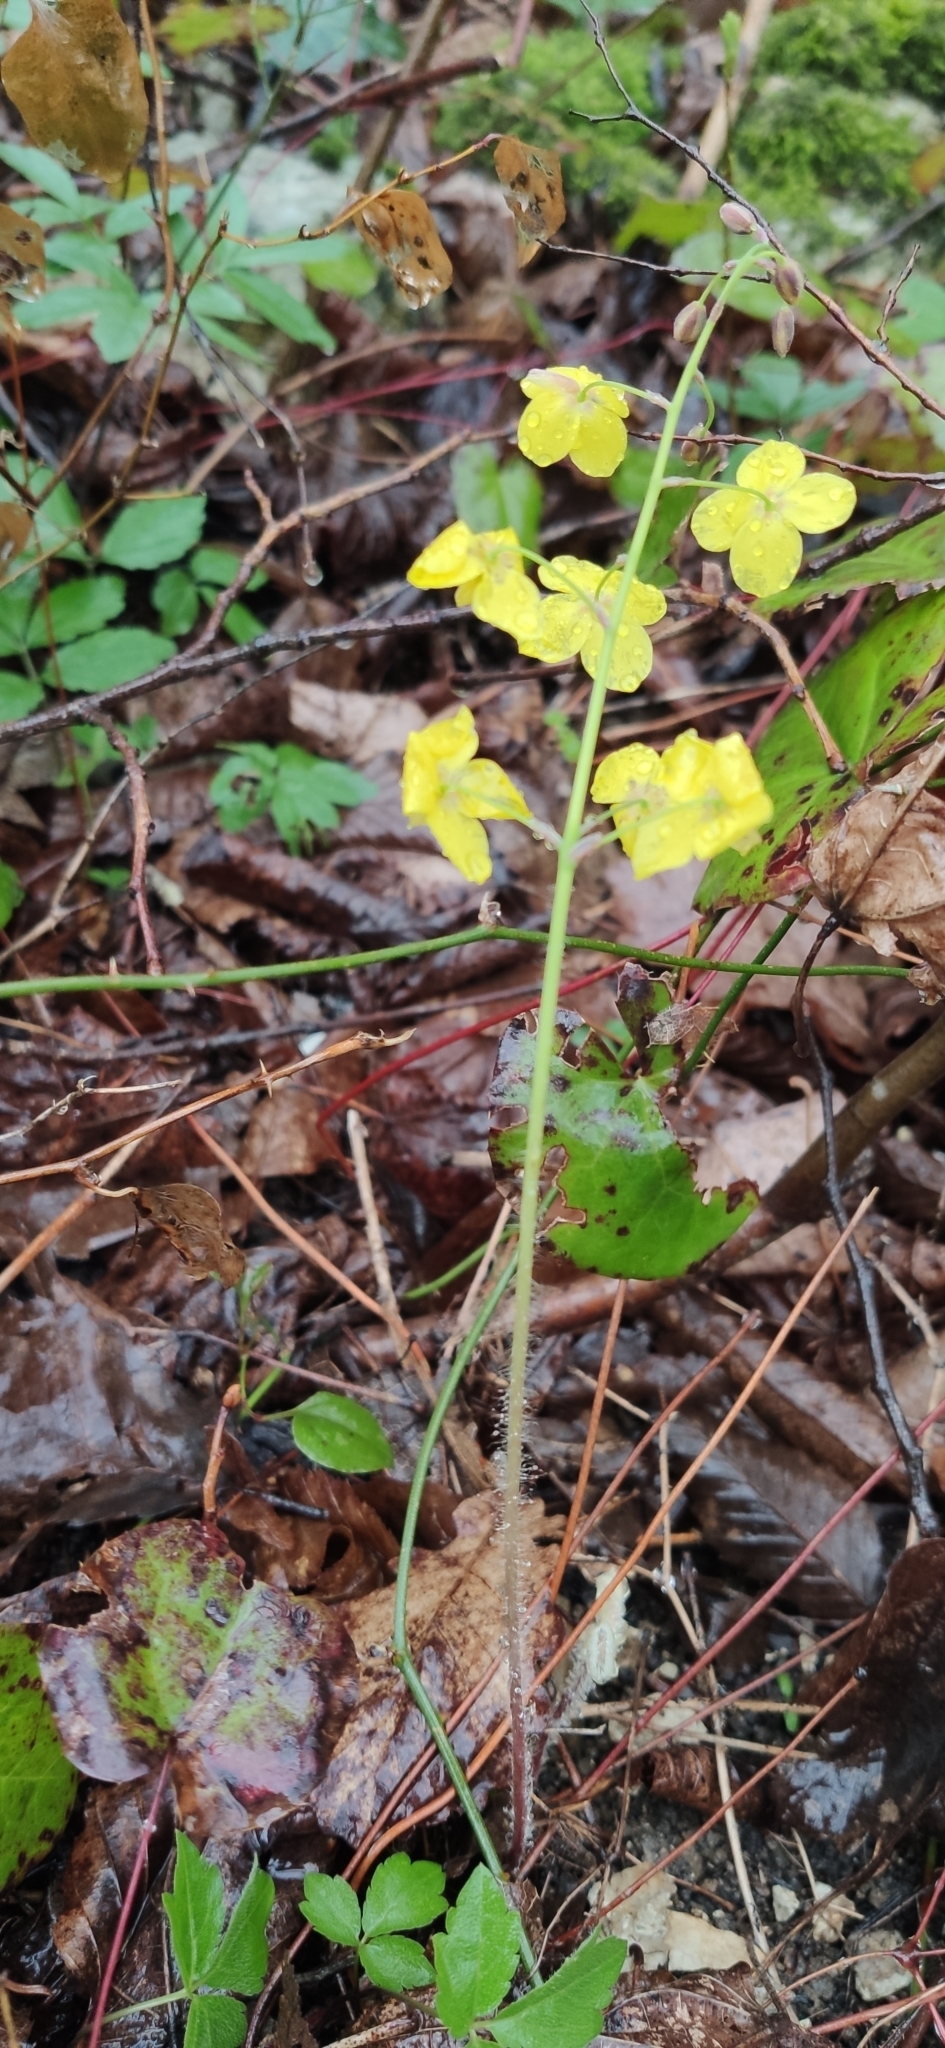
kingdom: Plantae
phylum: Tracheophyta
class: Magnoliopsida
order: Ranunculales
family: Berberidaceae
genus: Epimedium
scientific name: Epimedium pinnatum
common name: Caucasian barrenwort
